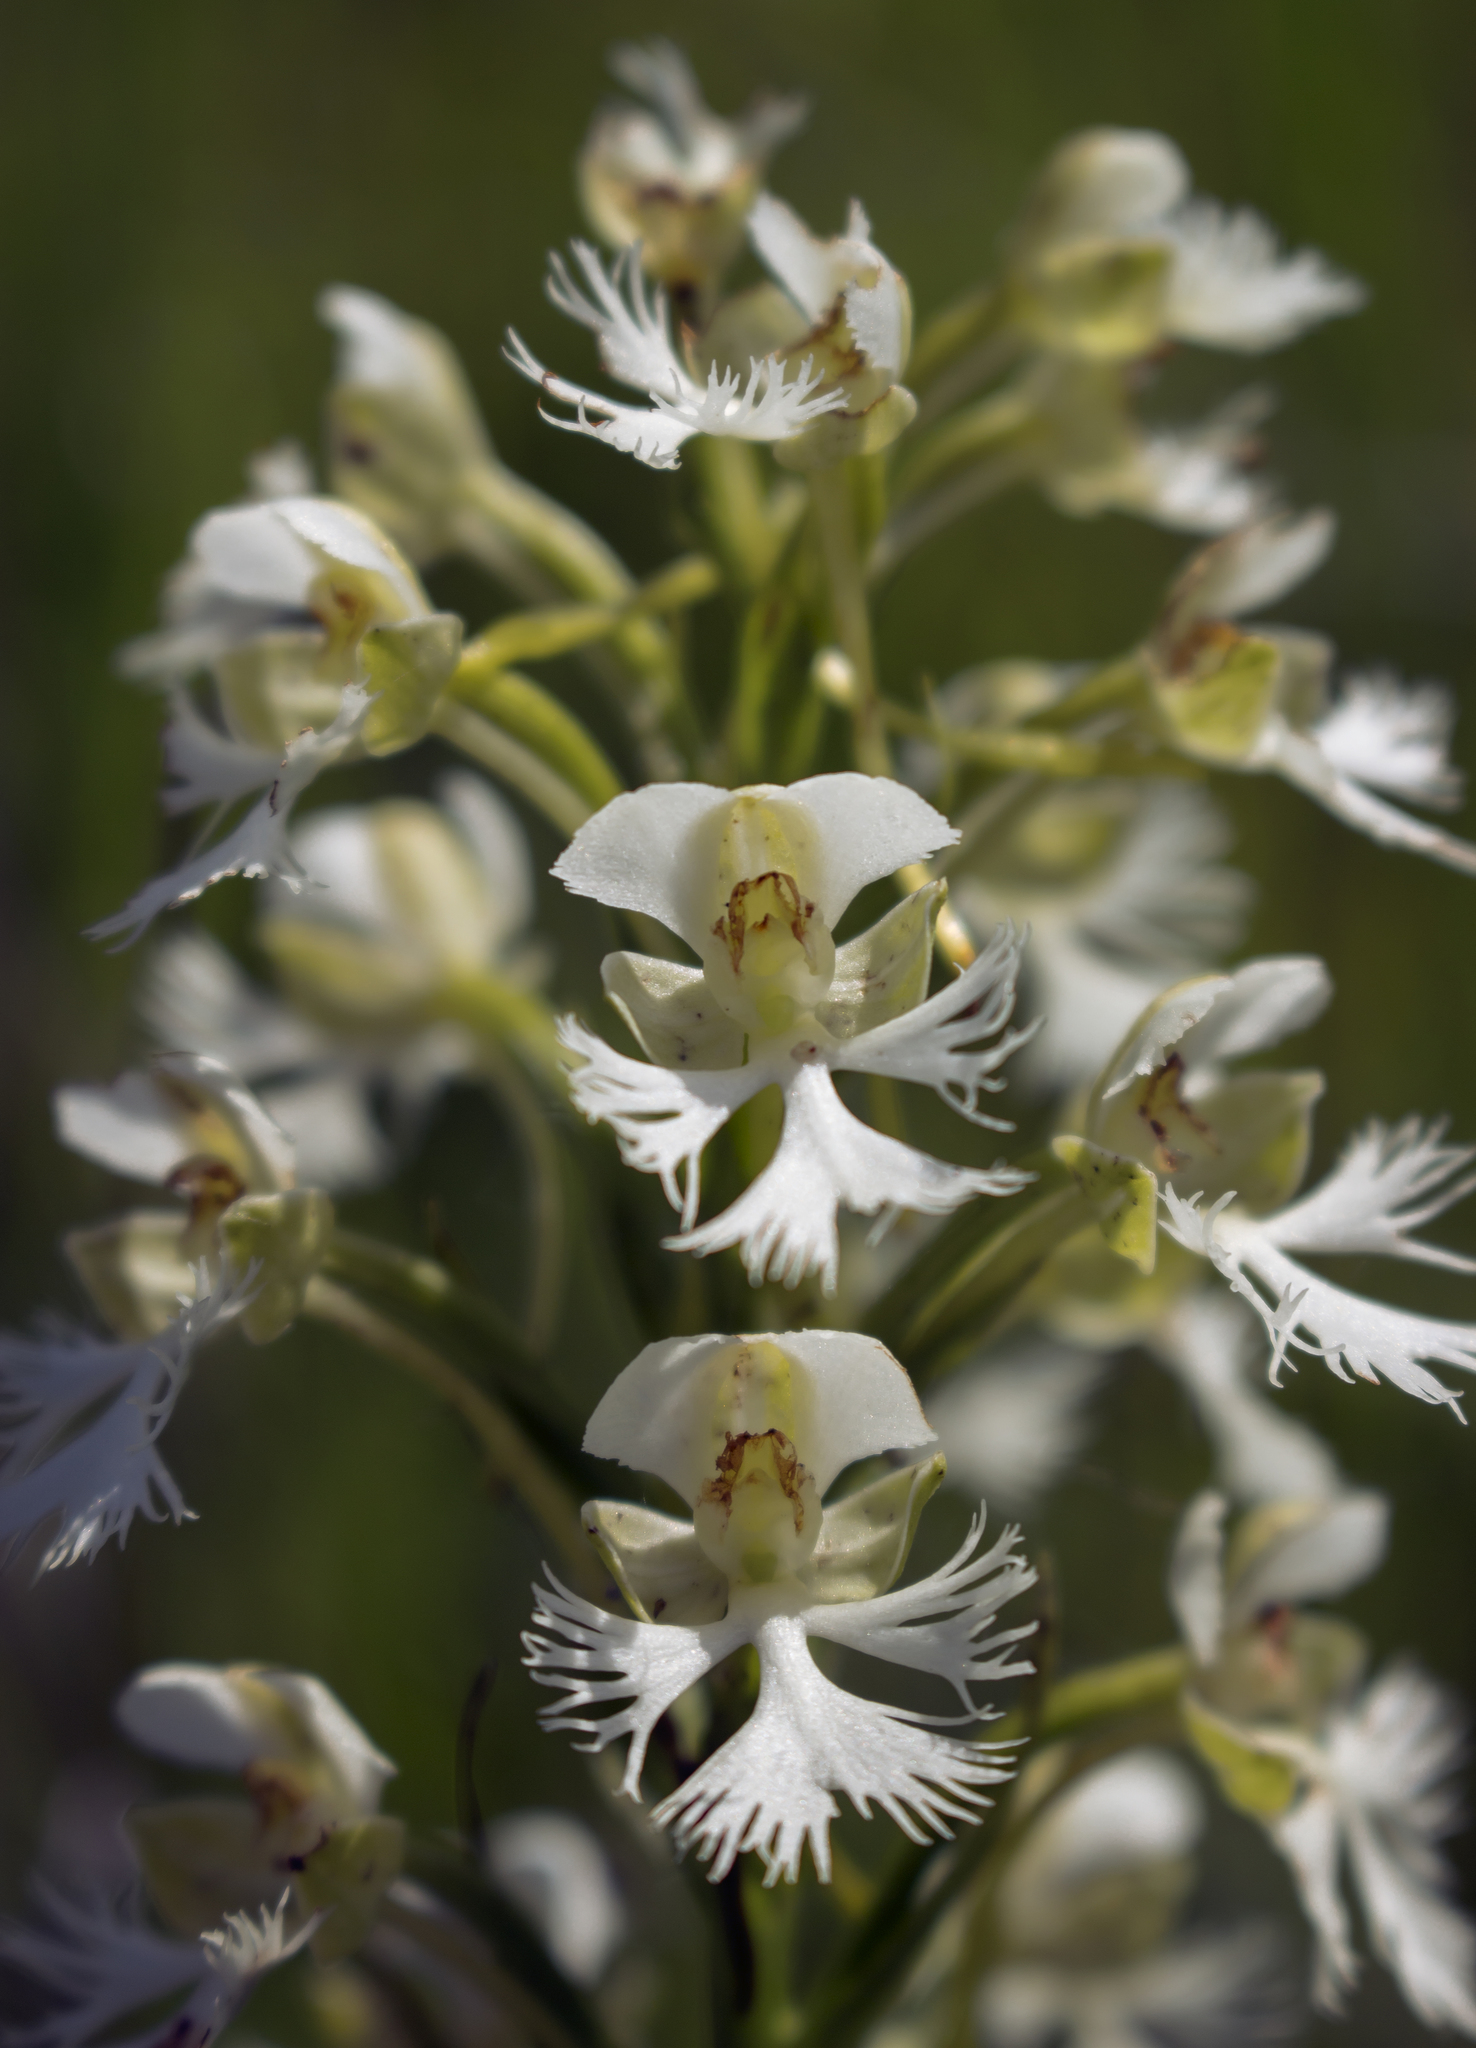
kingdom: Plantae
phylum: Tracheophyta
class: Liliopsida
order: Asparagales
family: Orchidaceae
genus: Platanthera
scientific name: Platanthera leucophaea
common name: Eastern prairie white-fringed orchid
